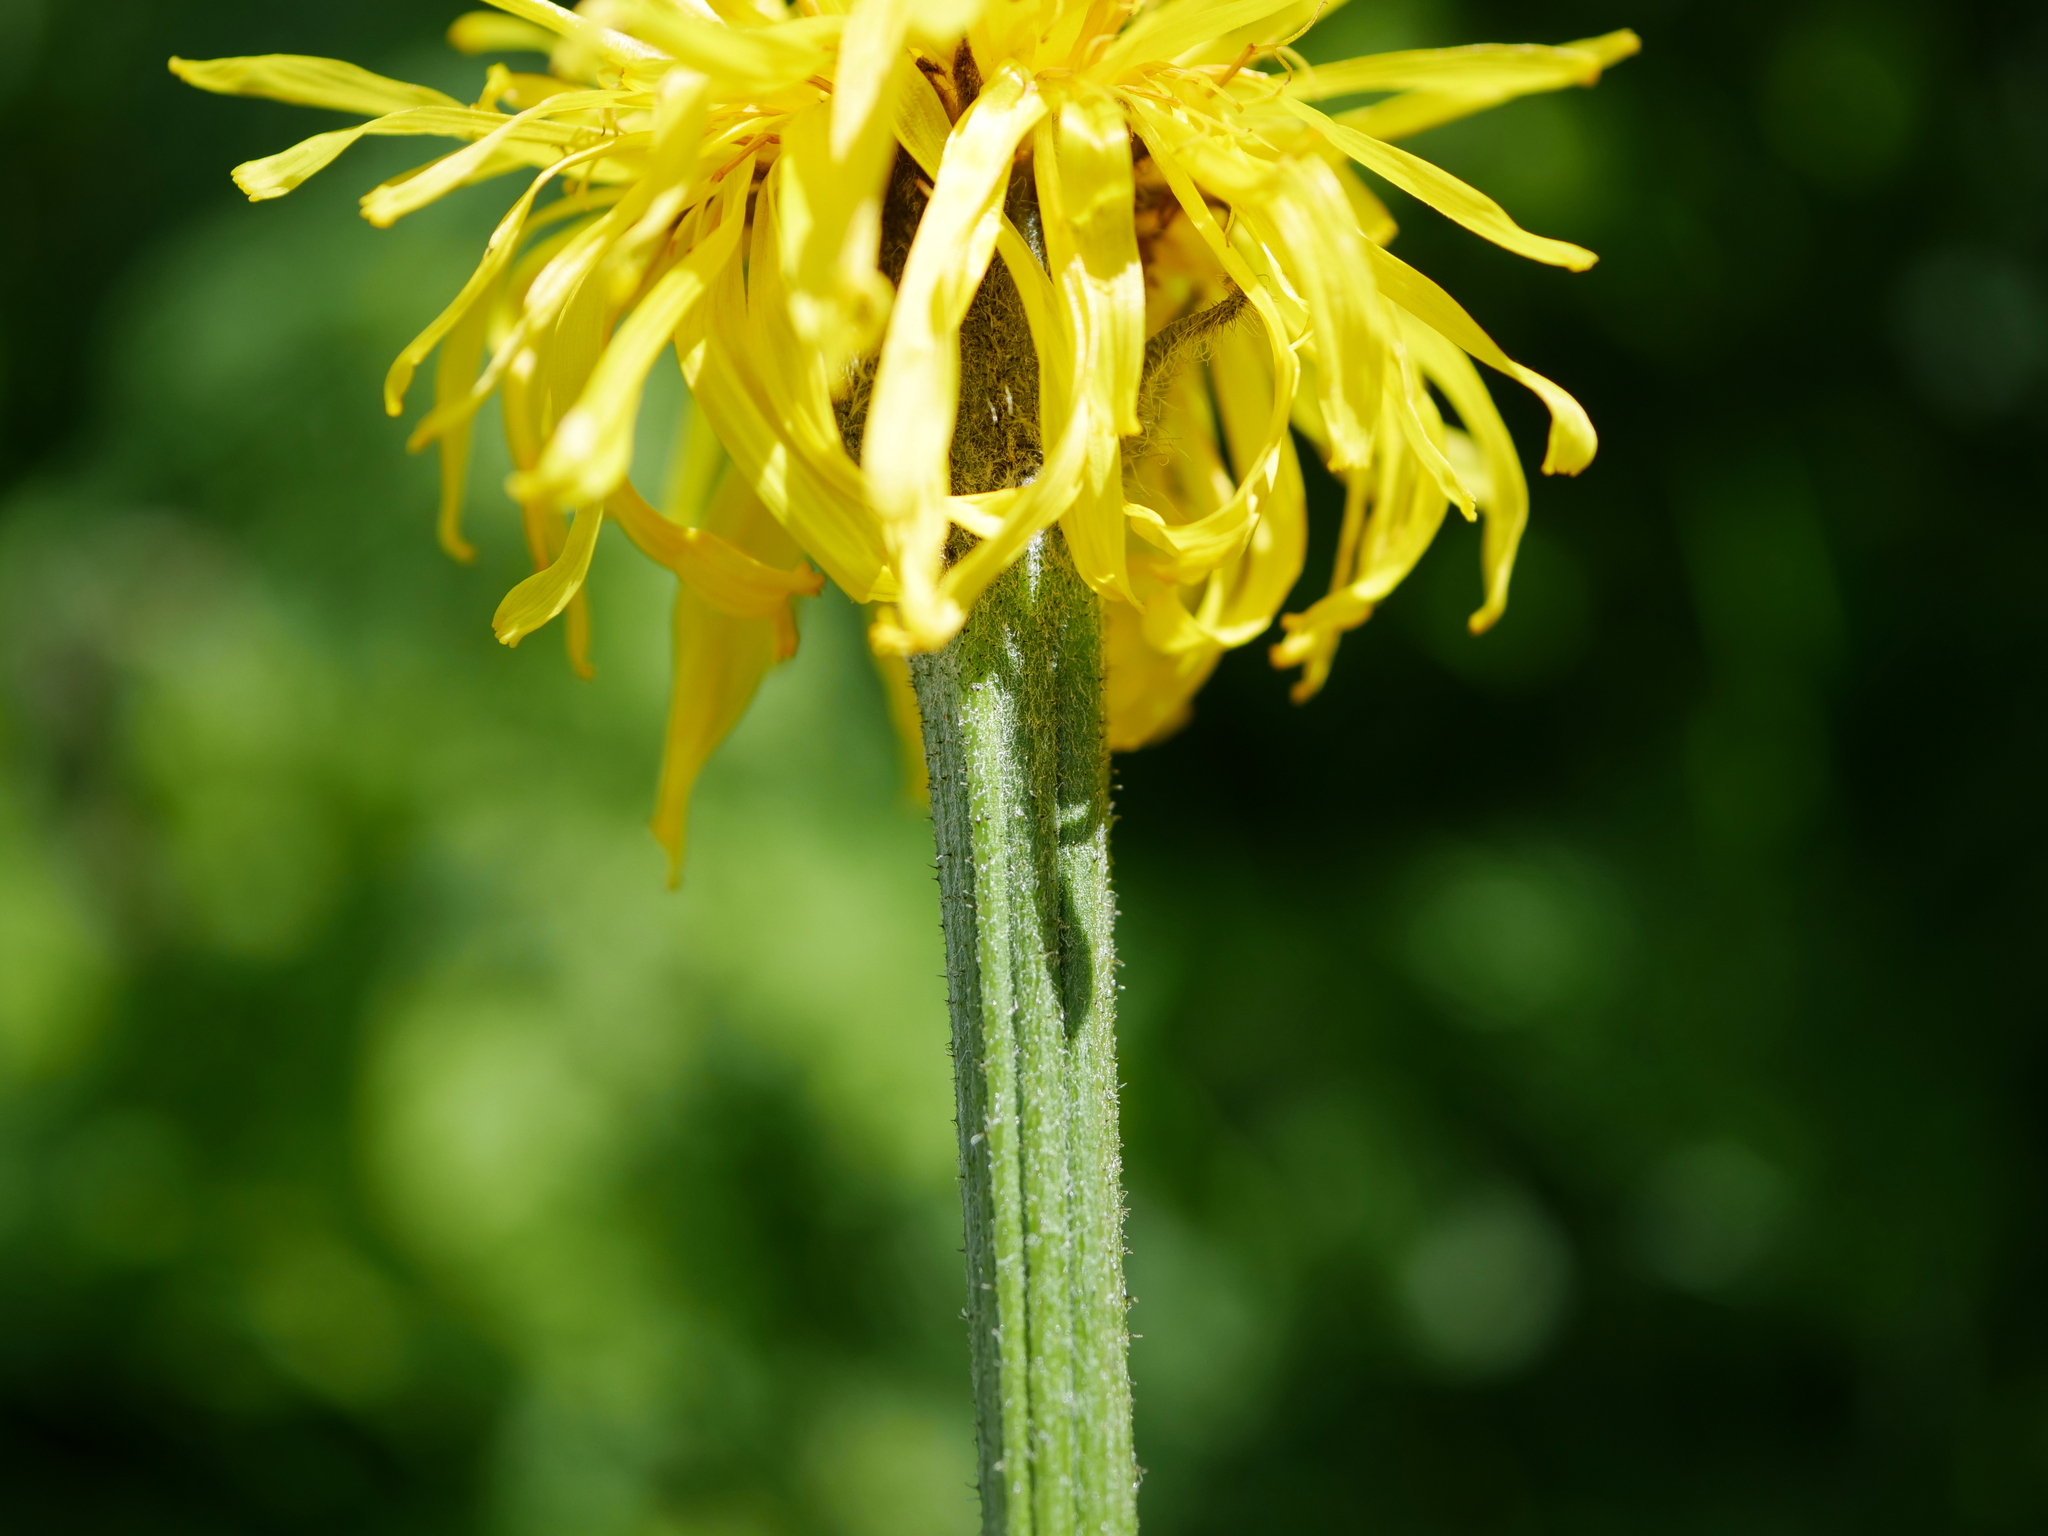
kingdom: Plantae
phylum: Tracheophyta
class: Magnoliopsida
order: Asterales
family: Asteraceae
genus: Crepis
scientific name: Crepis pontana
